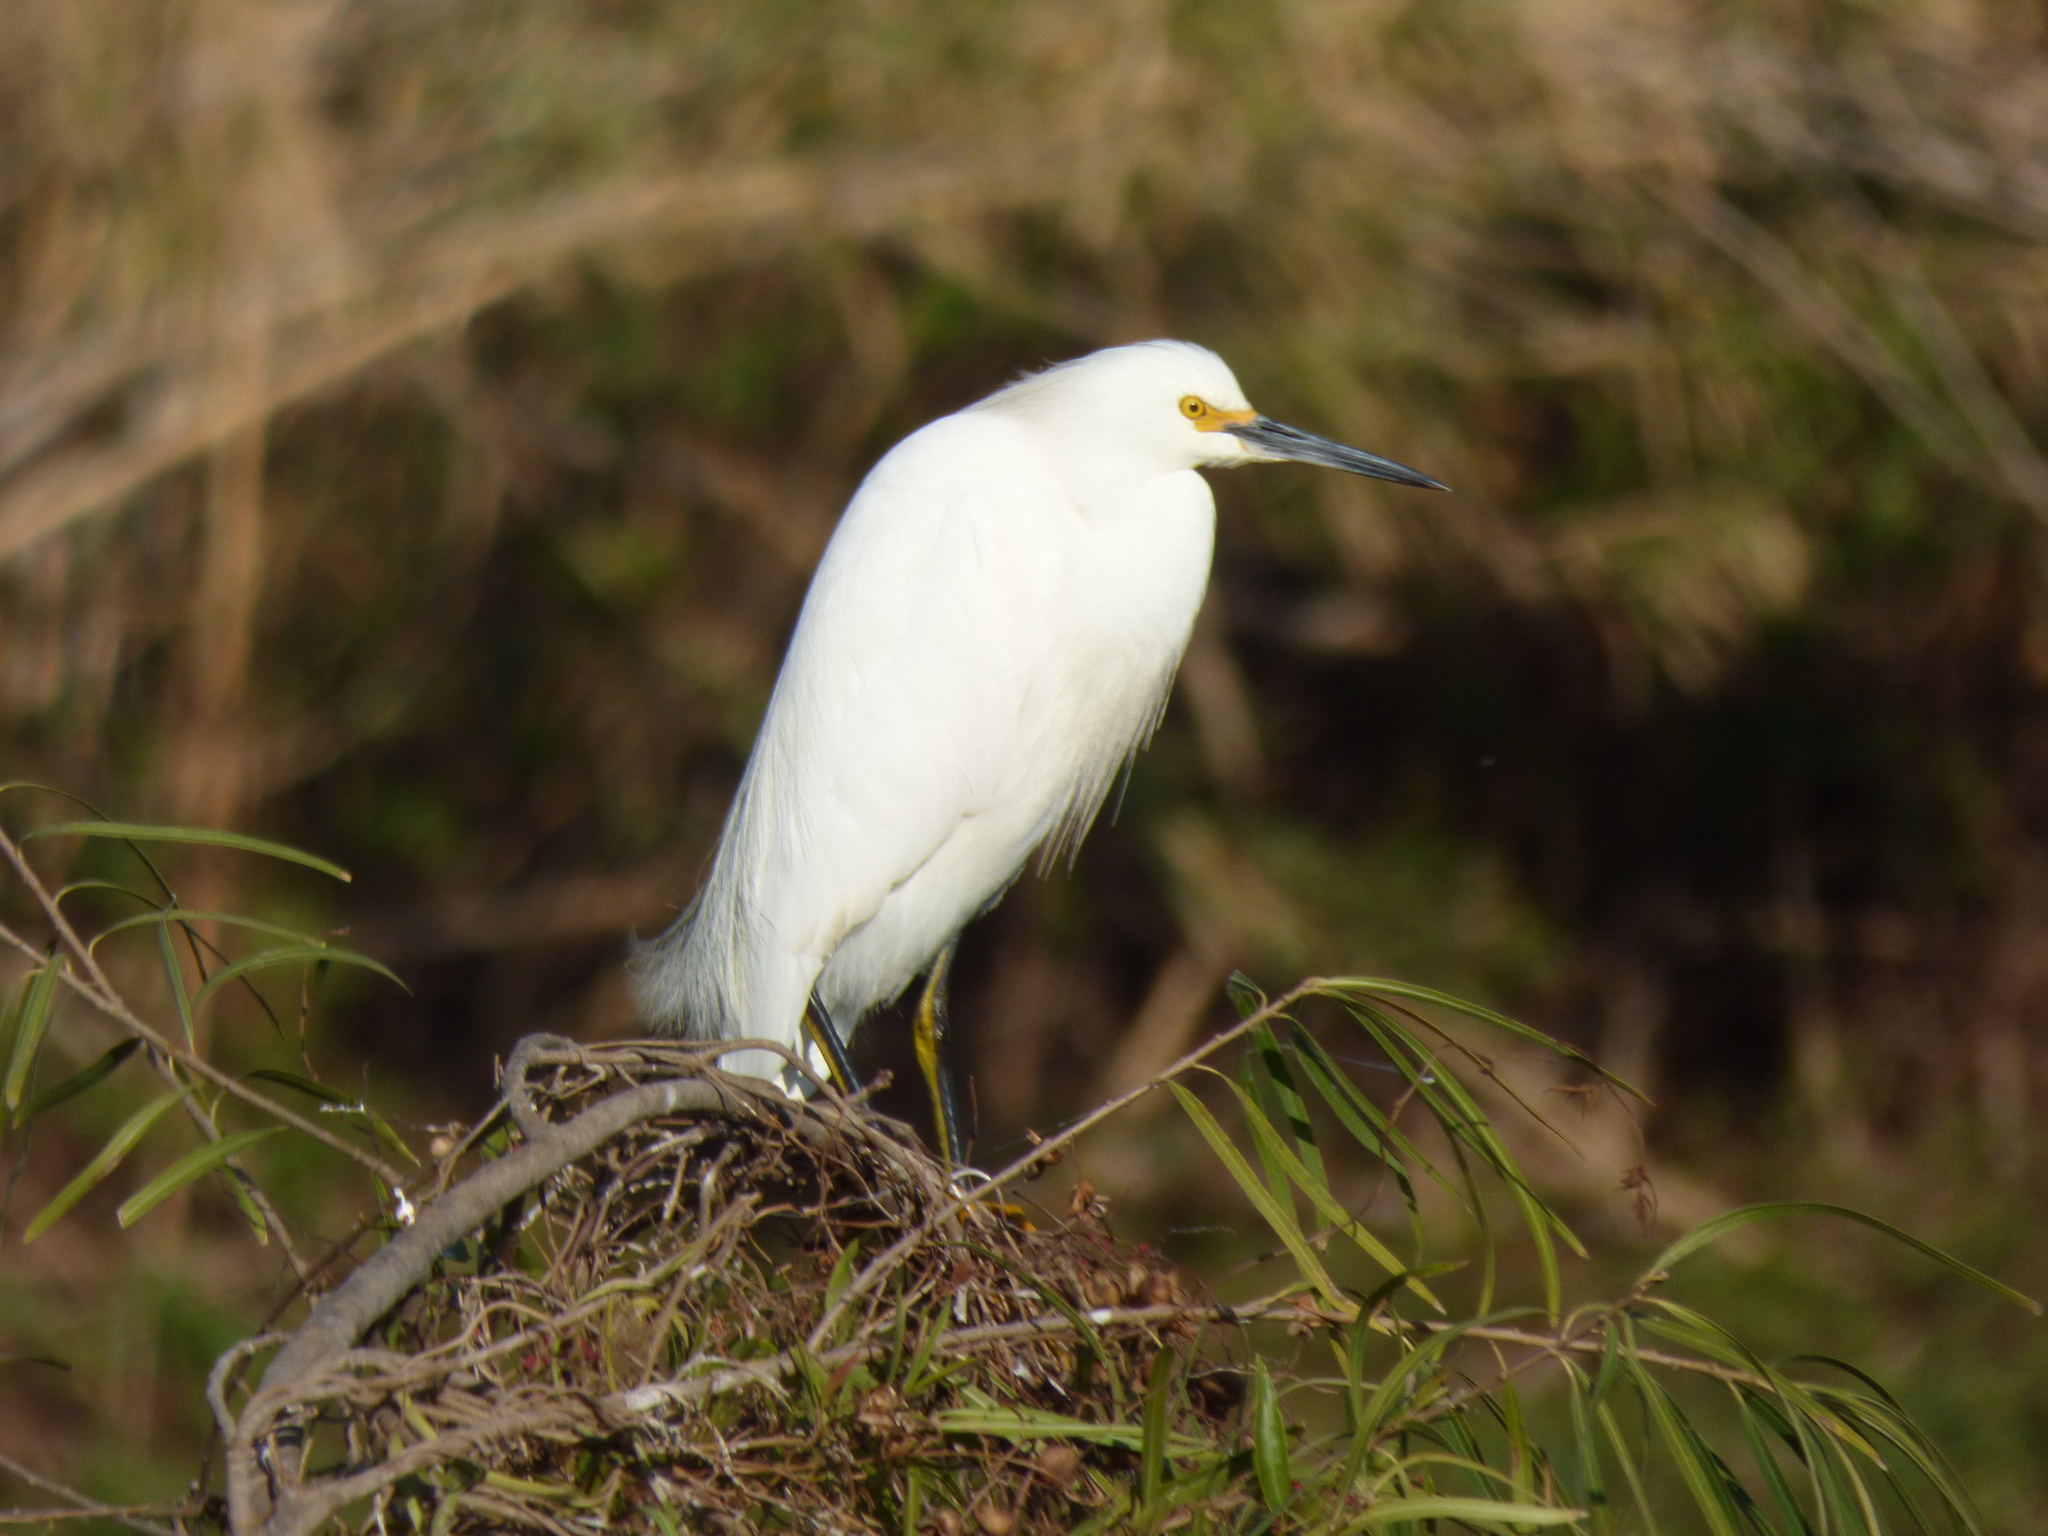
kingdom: Animalia
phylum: Chordata
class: Aves
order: Pelecaniformes
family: Ardeidae
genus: Egretta
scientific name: Egretta thula
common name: Snowy egret
